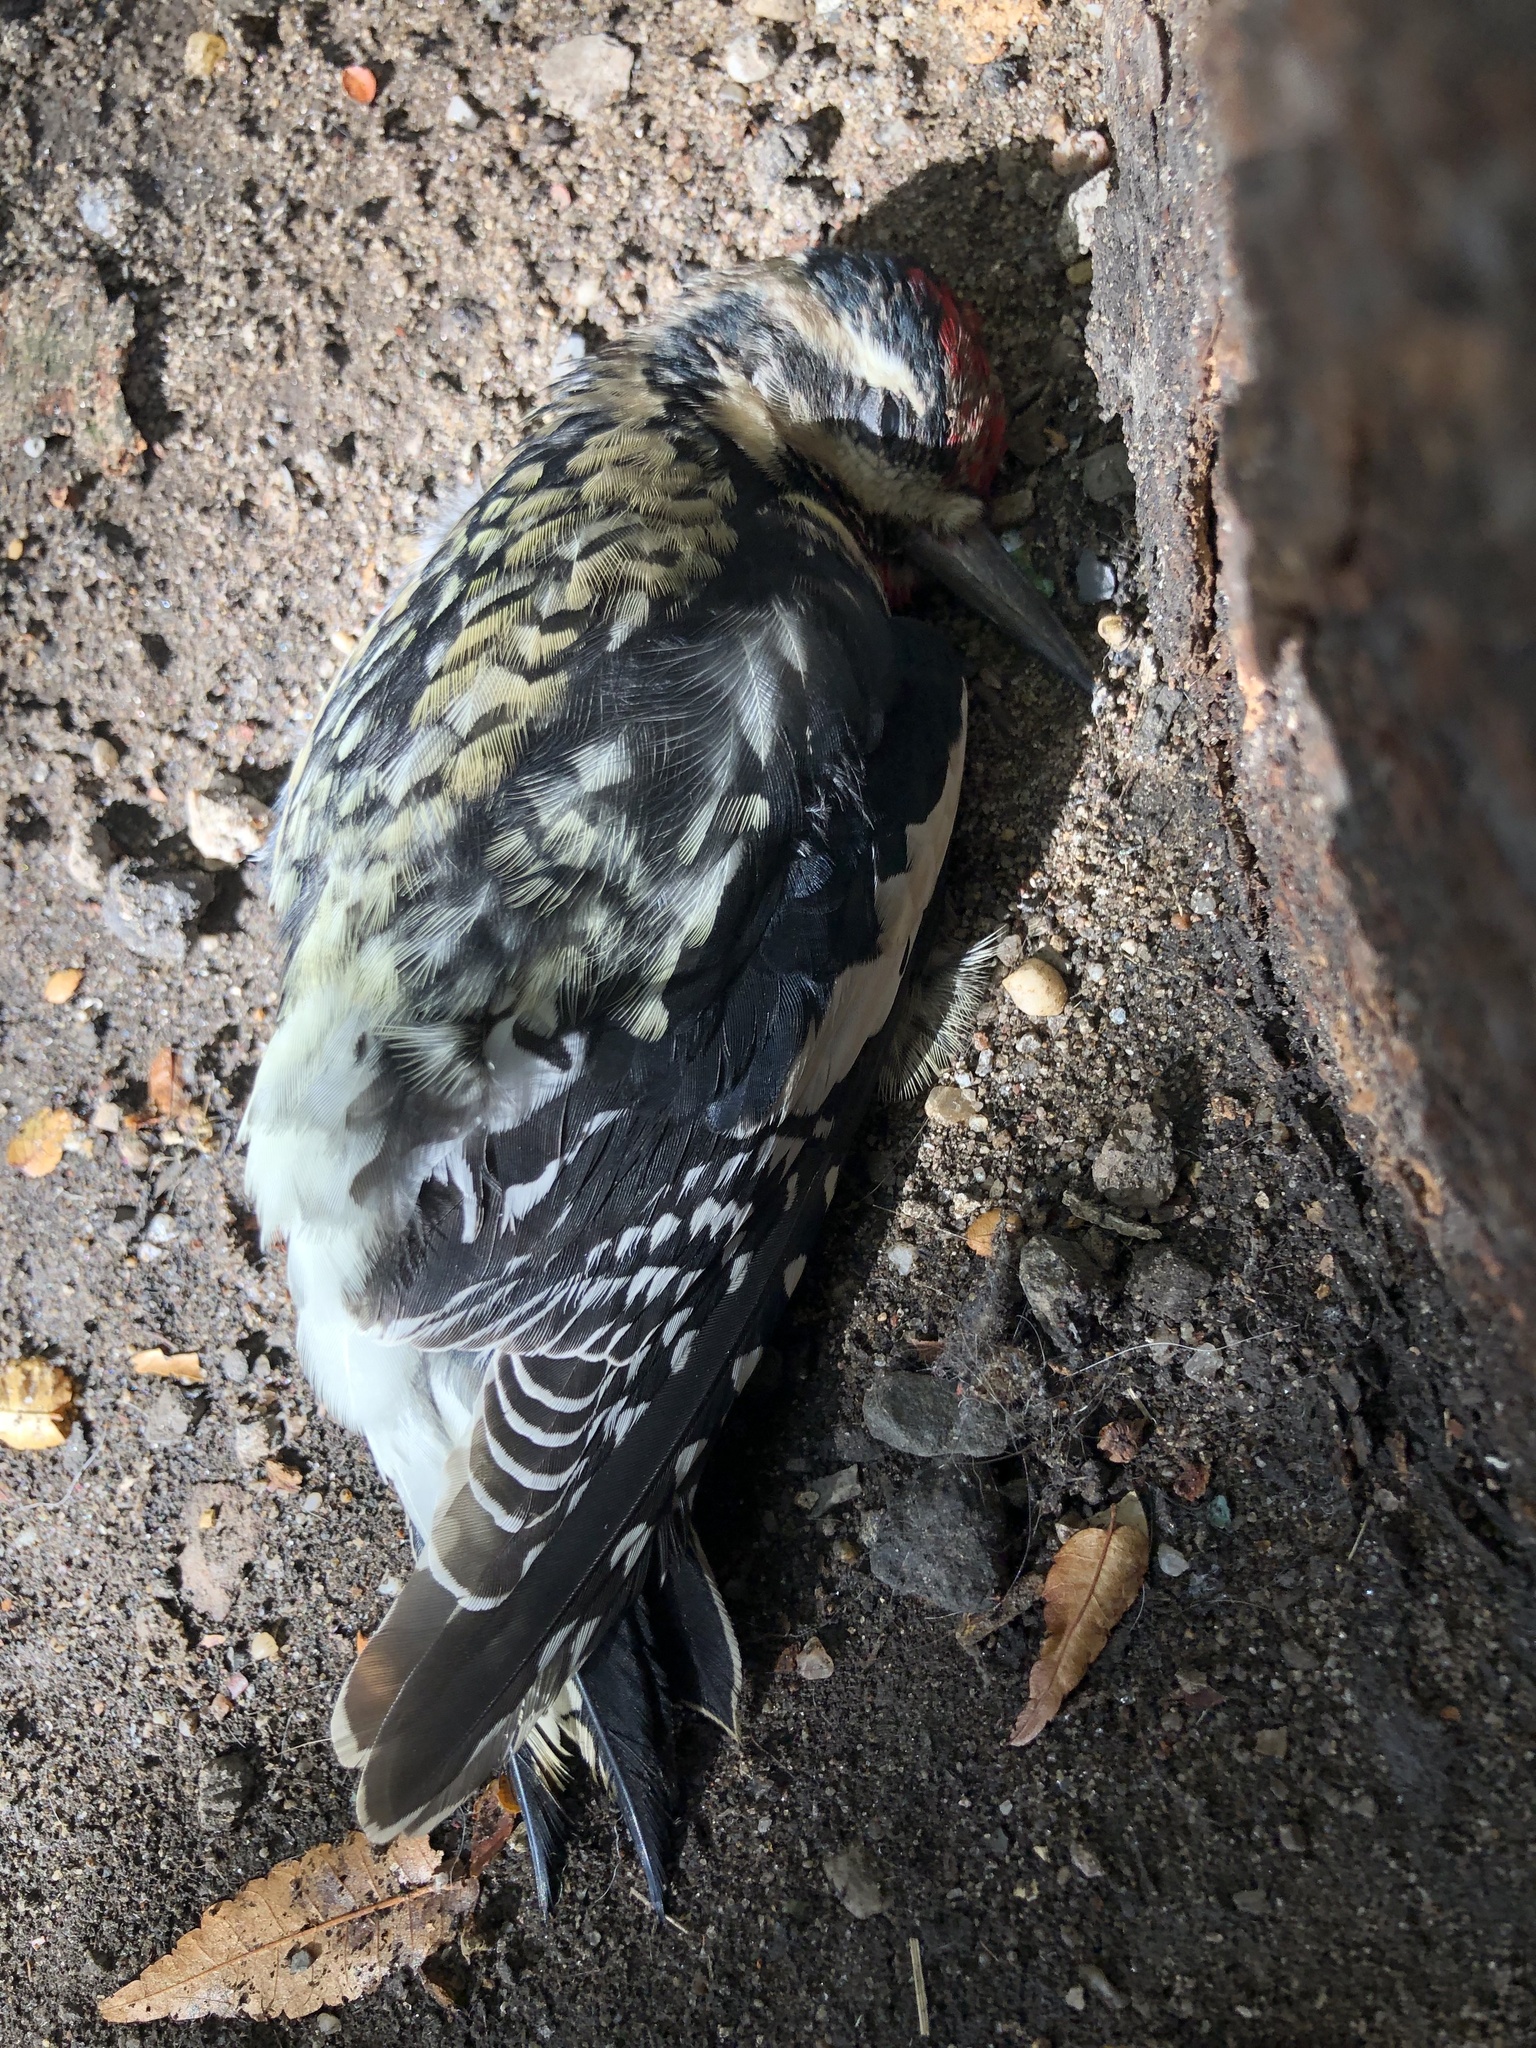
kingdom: Animalia
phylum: Chordata
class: Aves
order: Piciformes
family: Picidae
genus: Sphyrapicus
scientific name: Sphyrapicus varius
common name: Yellow-bellied sapsucker
